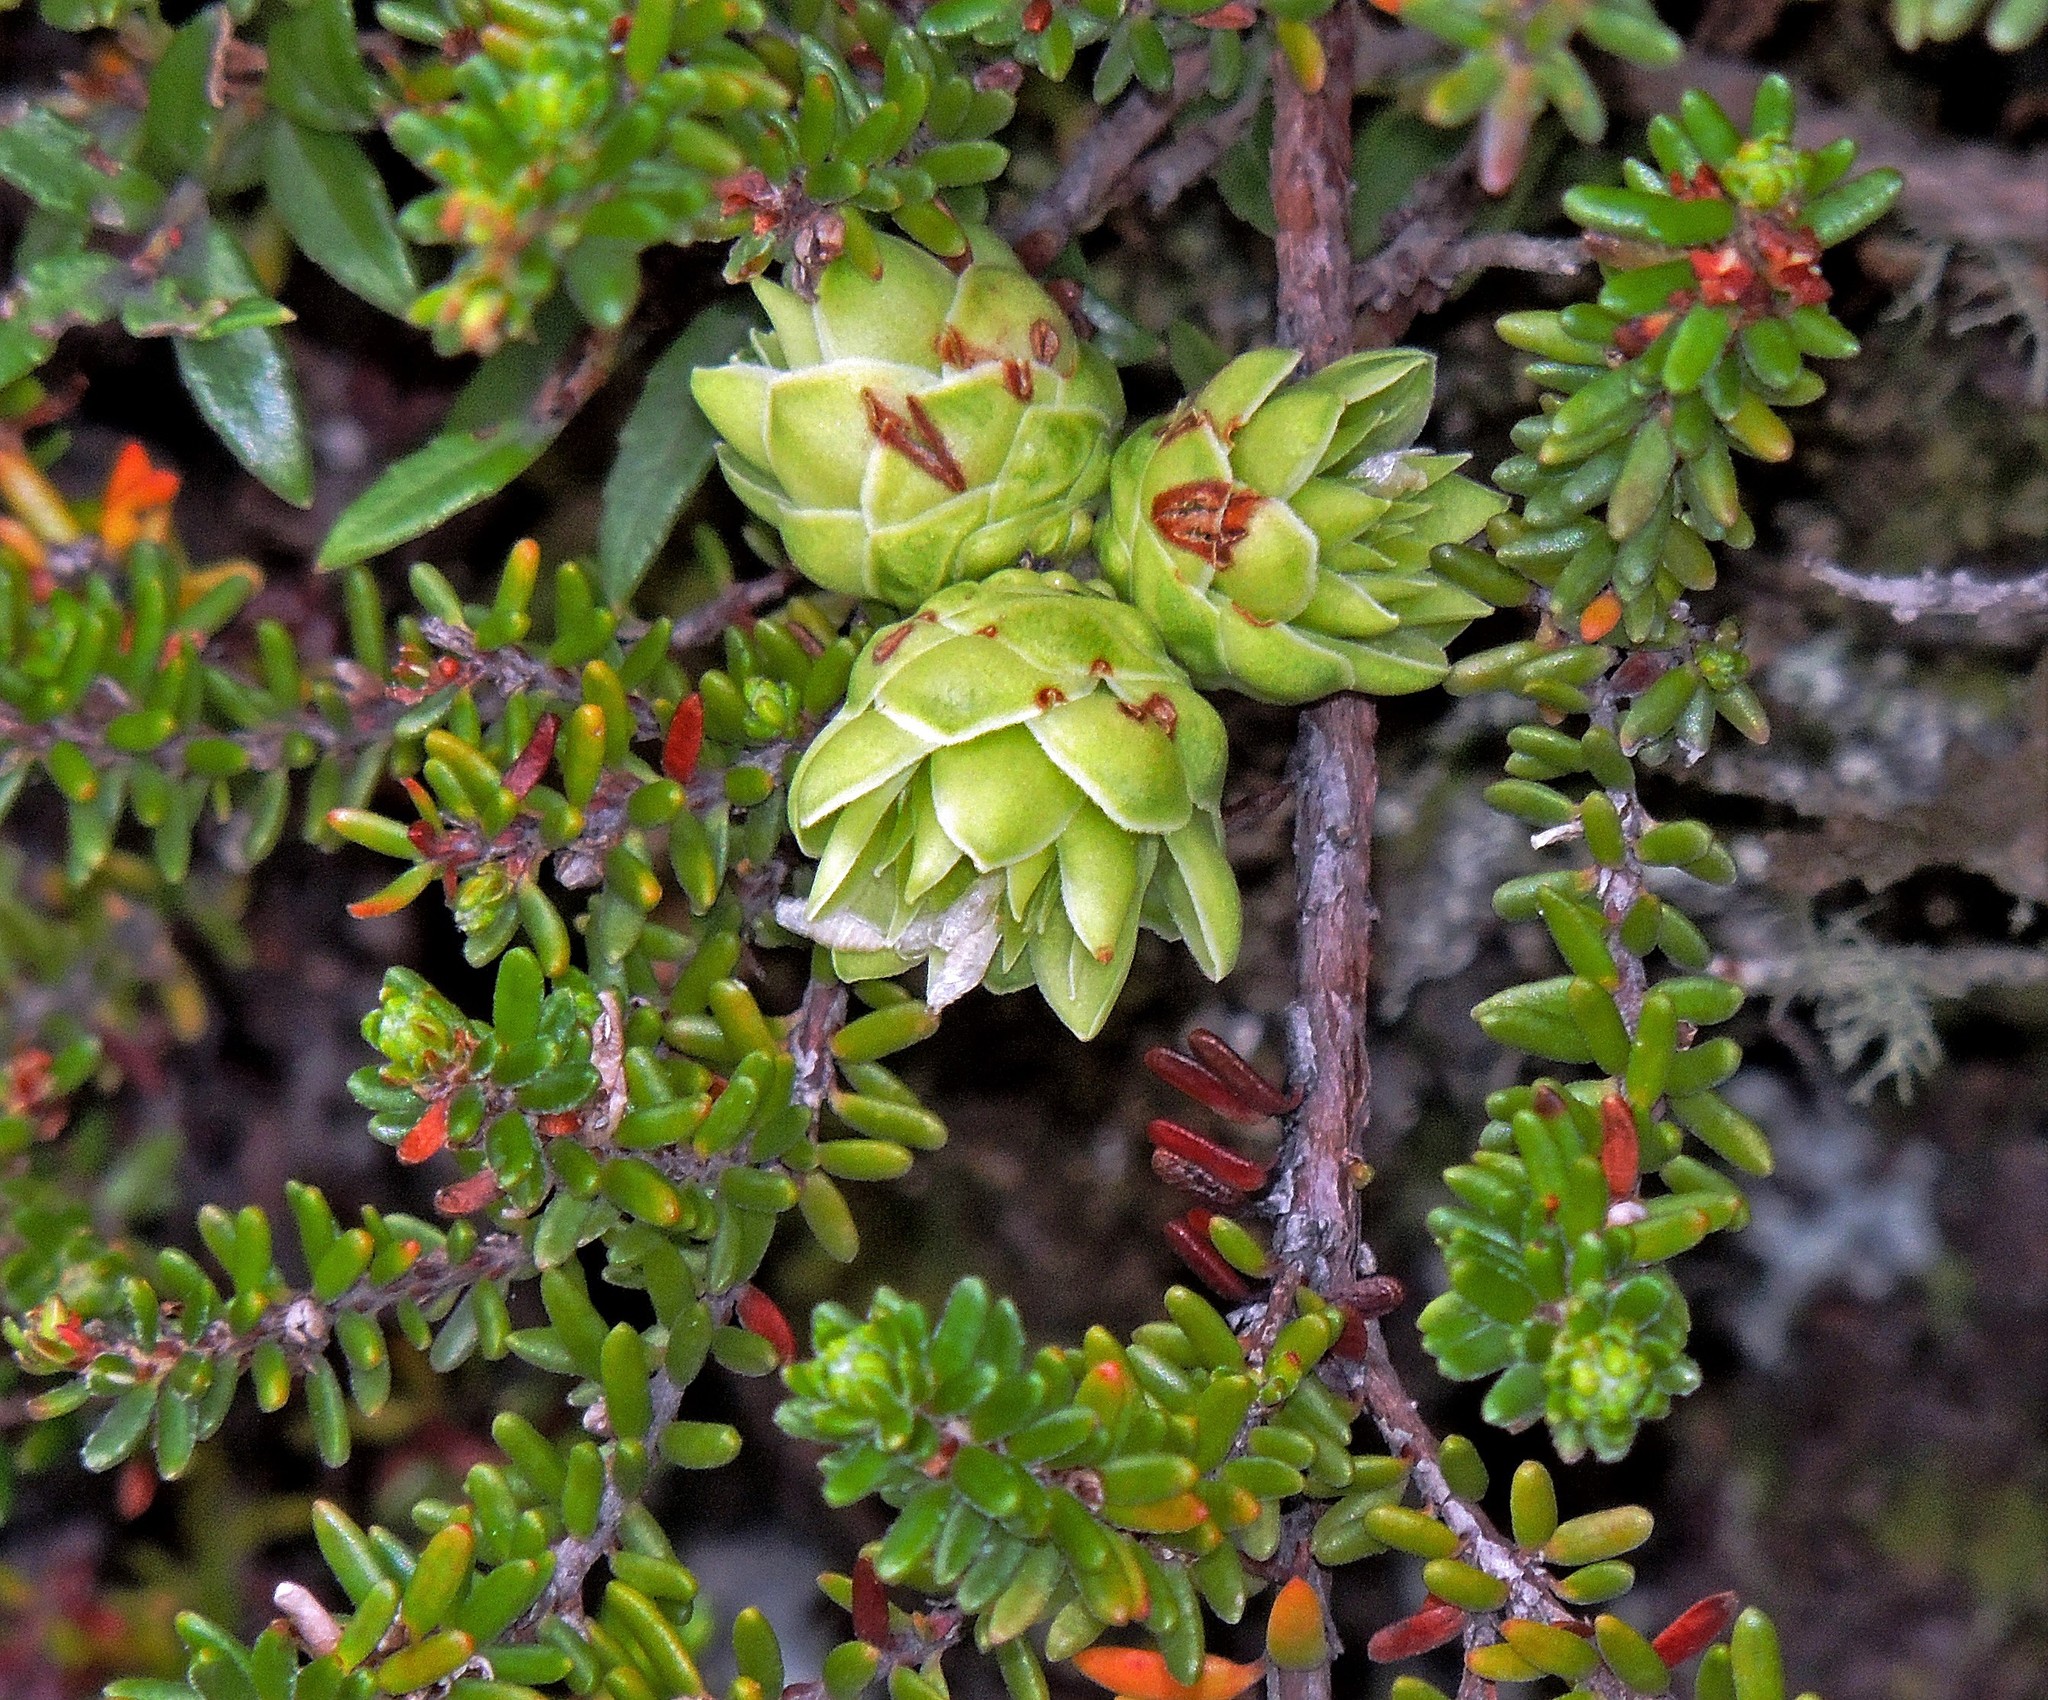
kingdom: Plantae
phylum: Tracheophyta
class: Magnoliopsida
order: Ericales
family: Ericaceae
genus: Empetrum
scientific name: Empetrum rubrum
